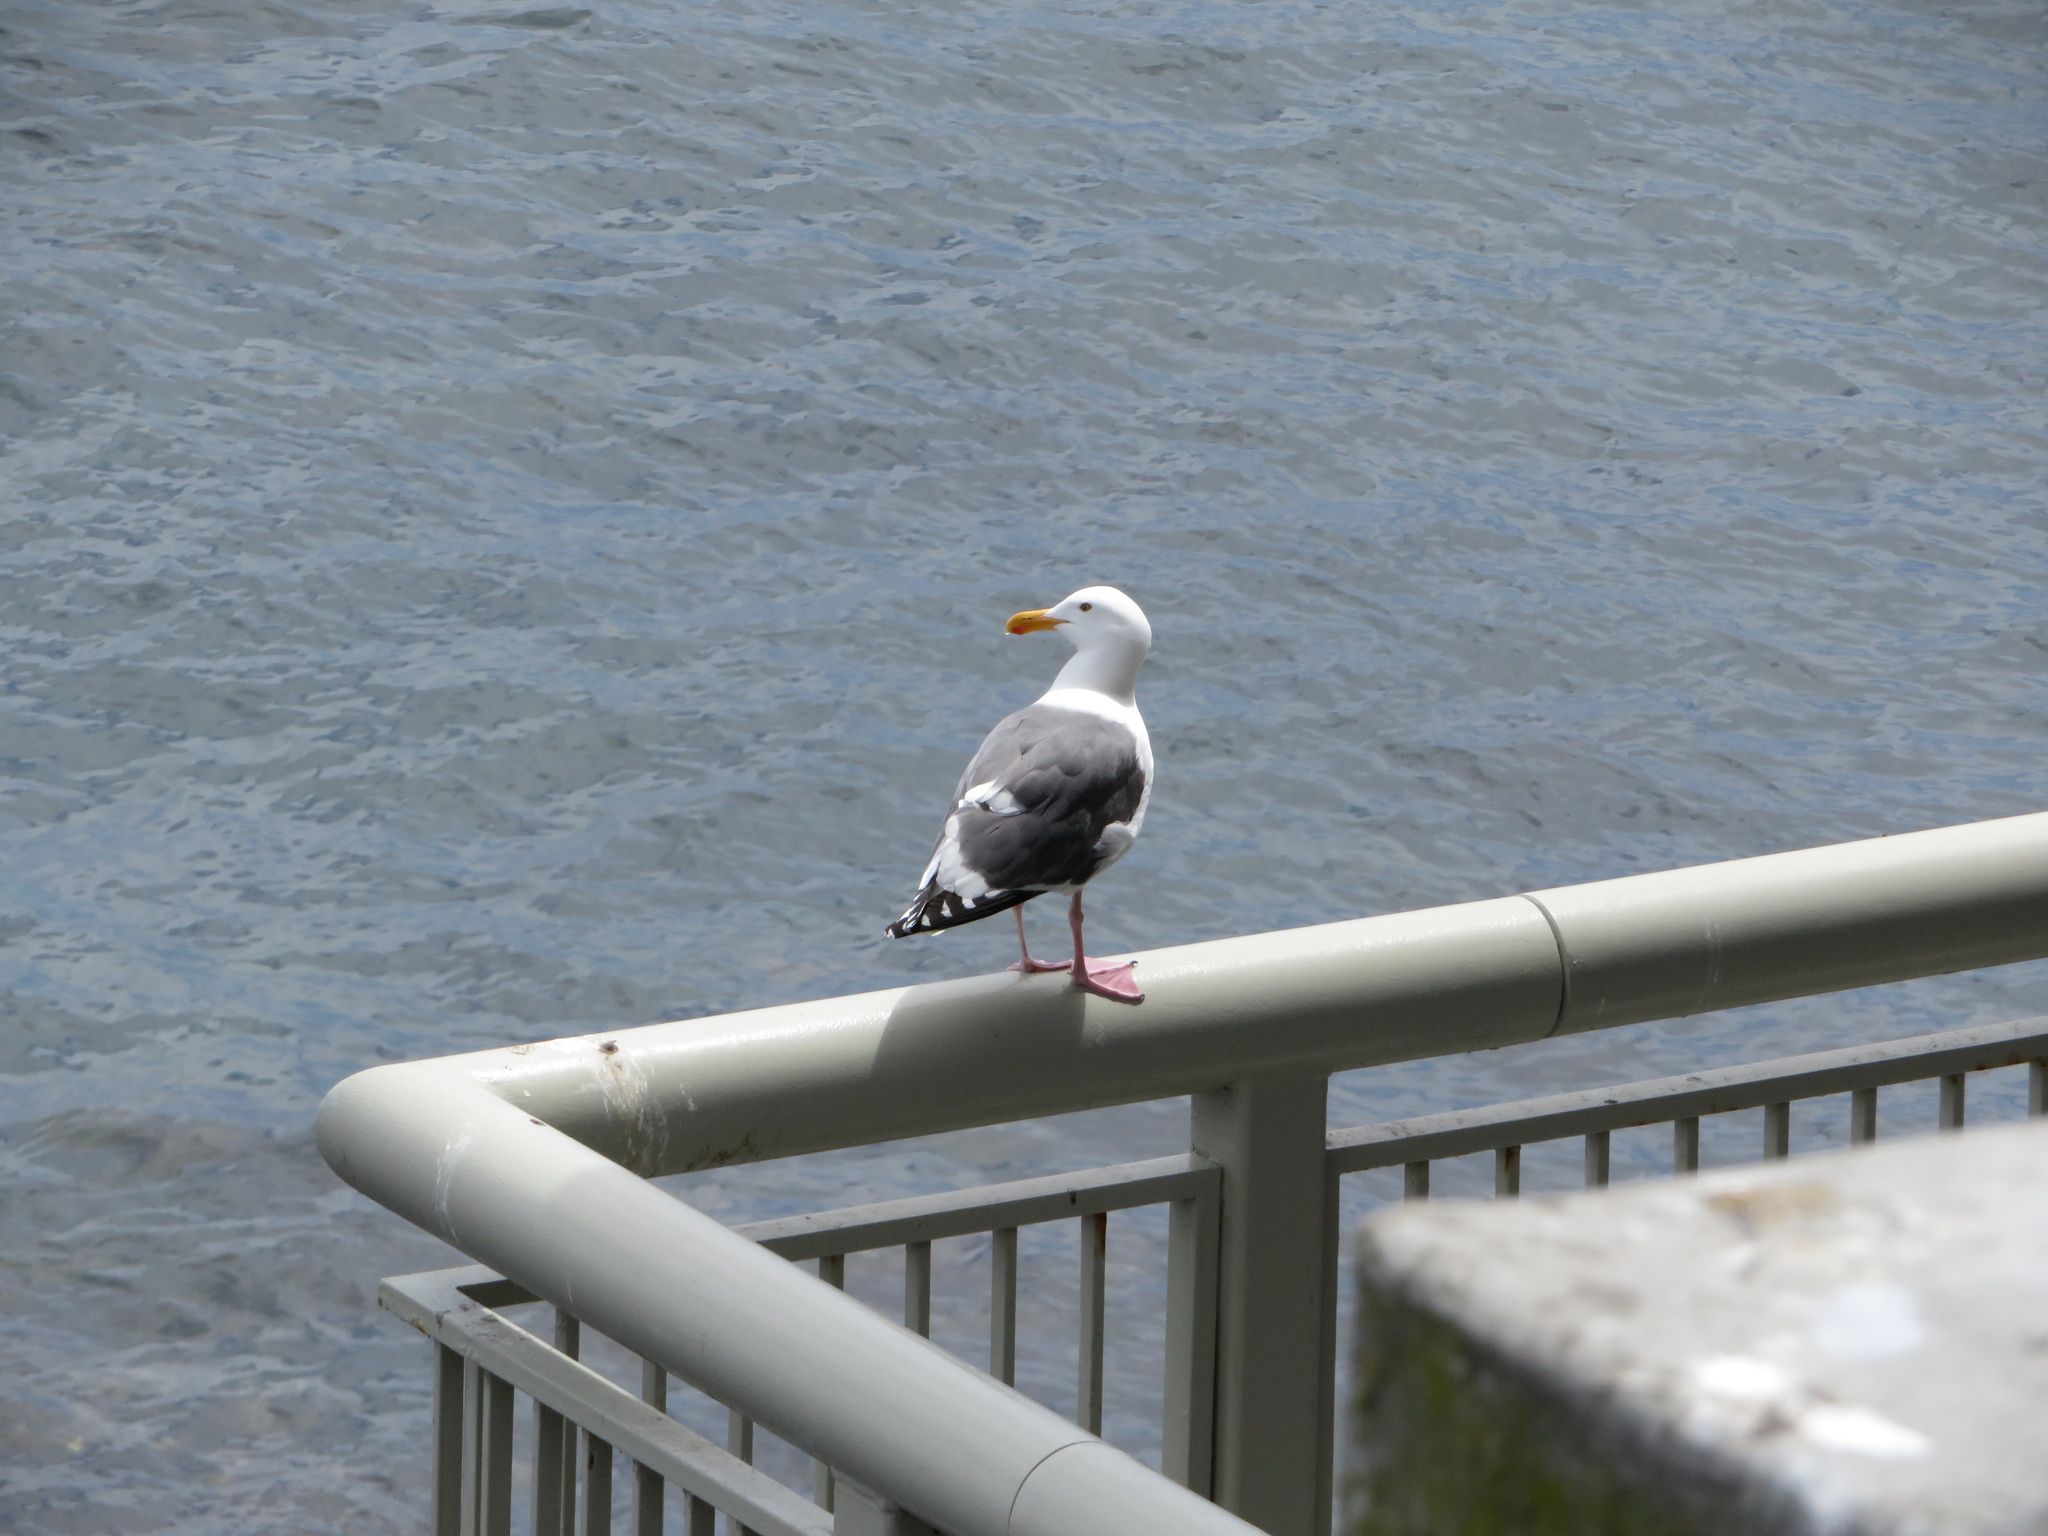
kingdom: Animalia
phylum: Chordata
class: Aves
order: Charadriiformes
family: Laridae
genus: Larus
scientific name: Larus occidentalis
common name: Western gull
